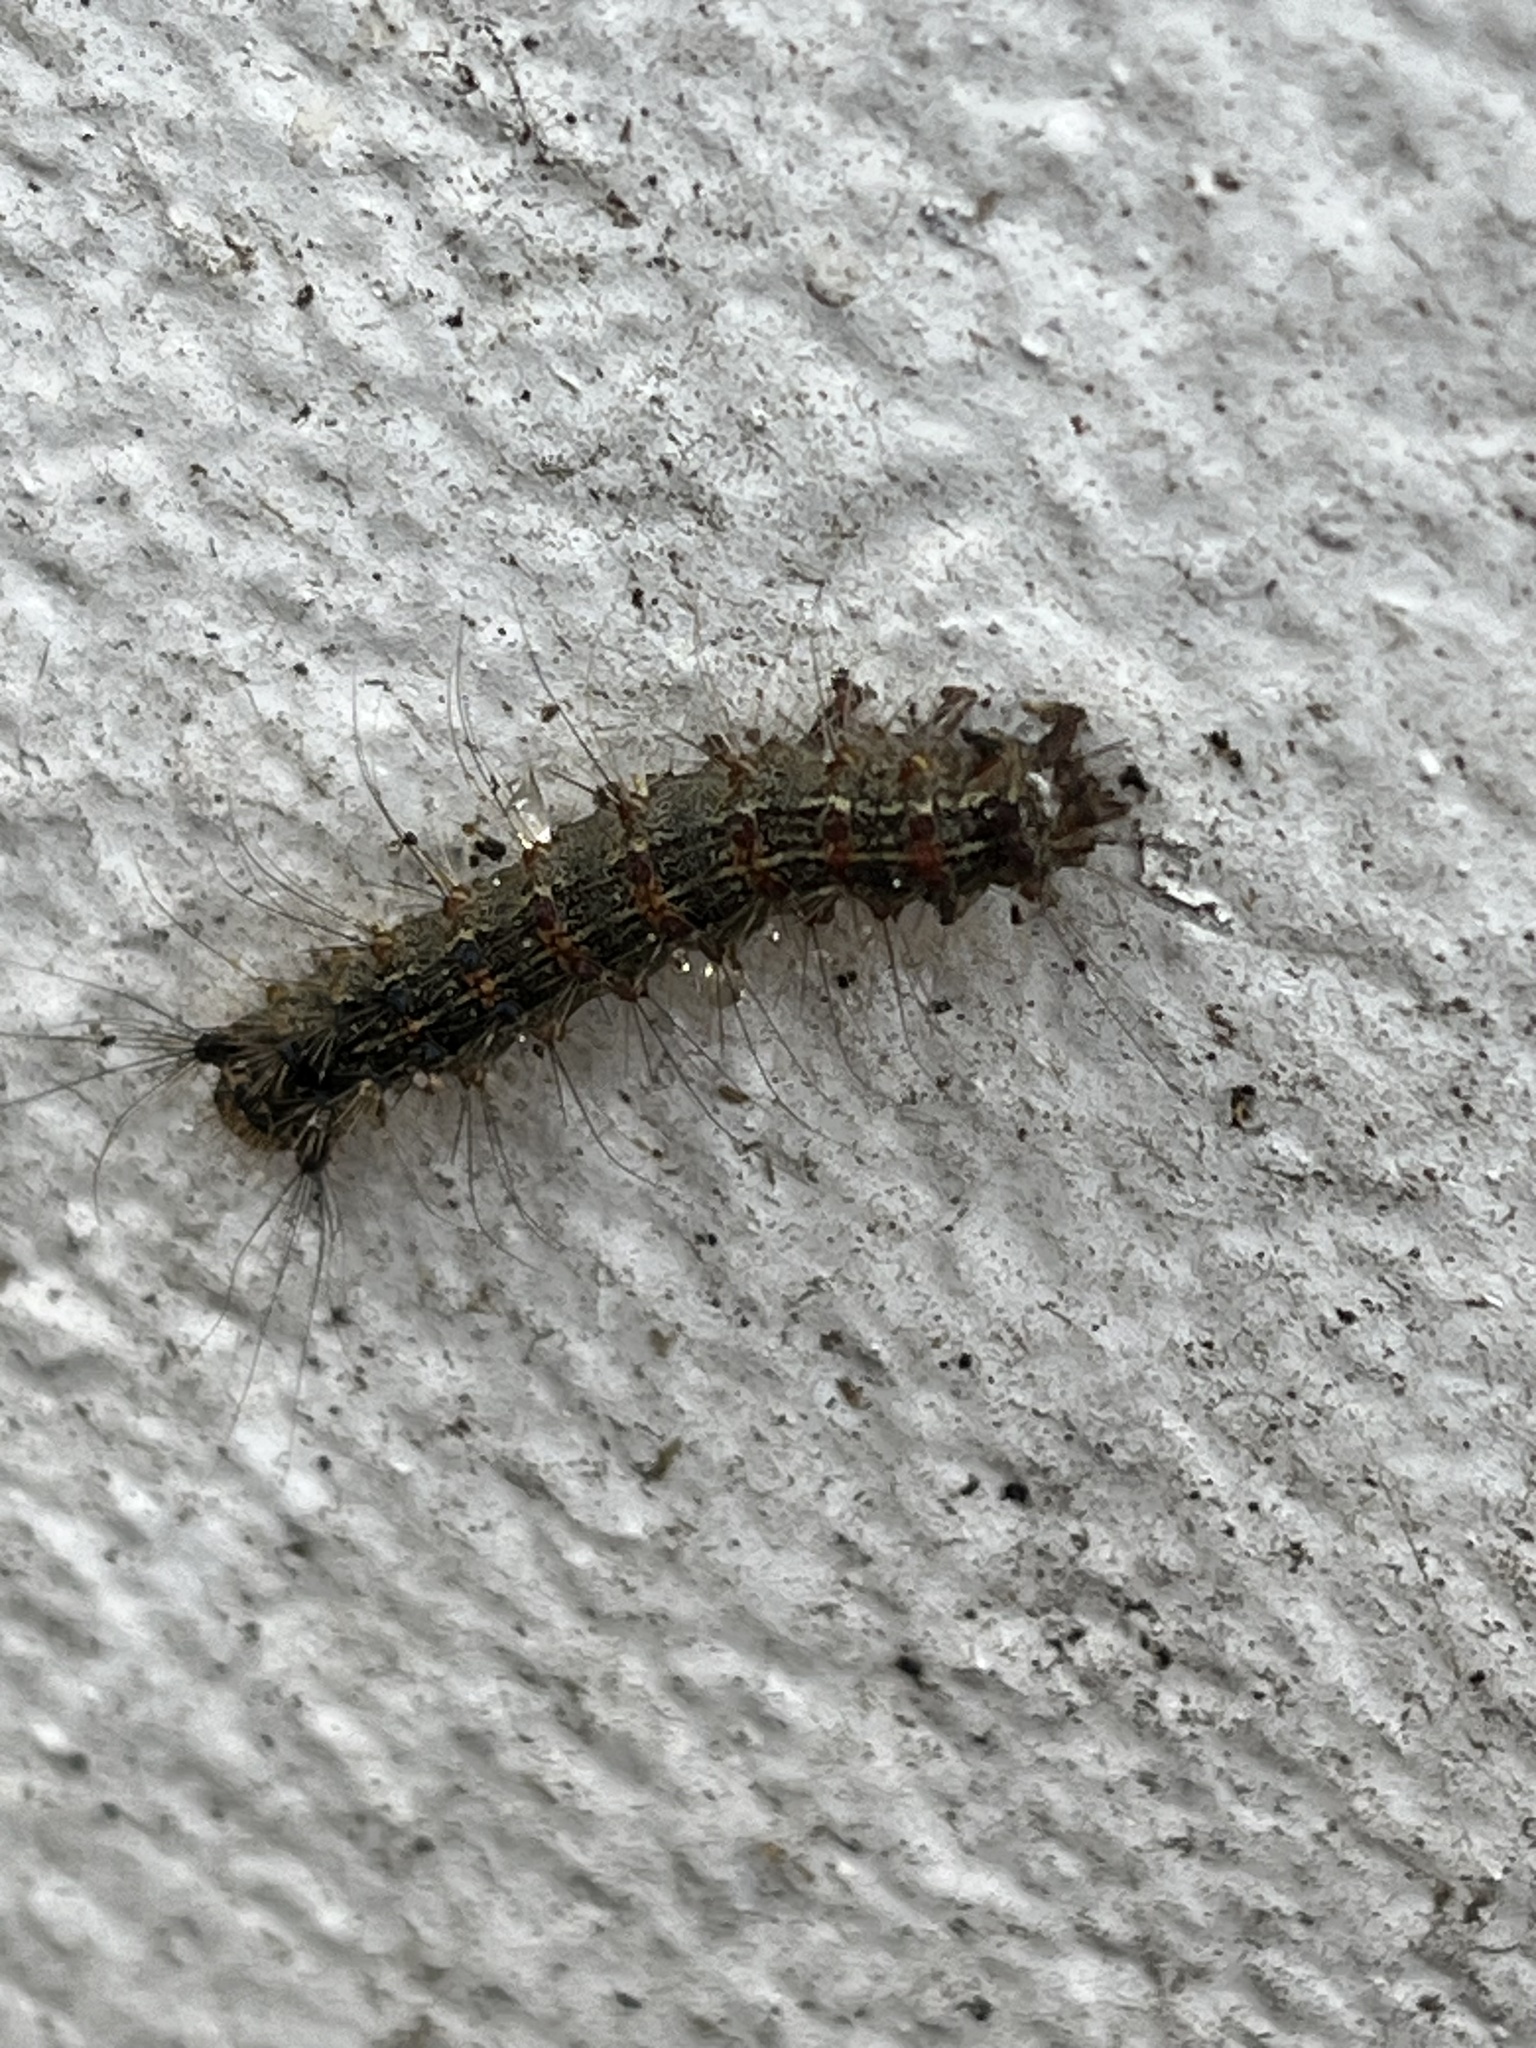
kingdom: Animalia
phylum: Arthropoda
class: Insecta
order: Lepidoptera
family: Erebidae
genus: Lymantria
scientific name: Lymantria dispar
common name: Gypsy moth
